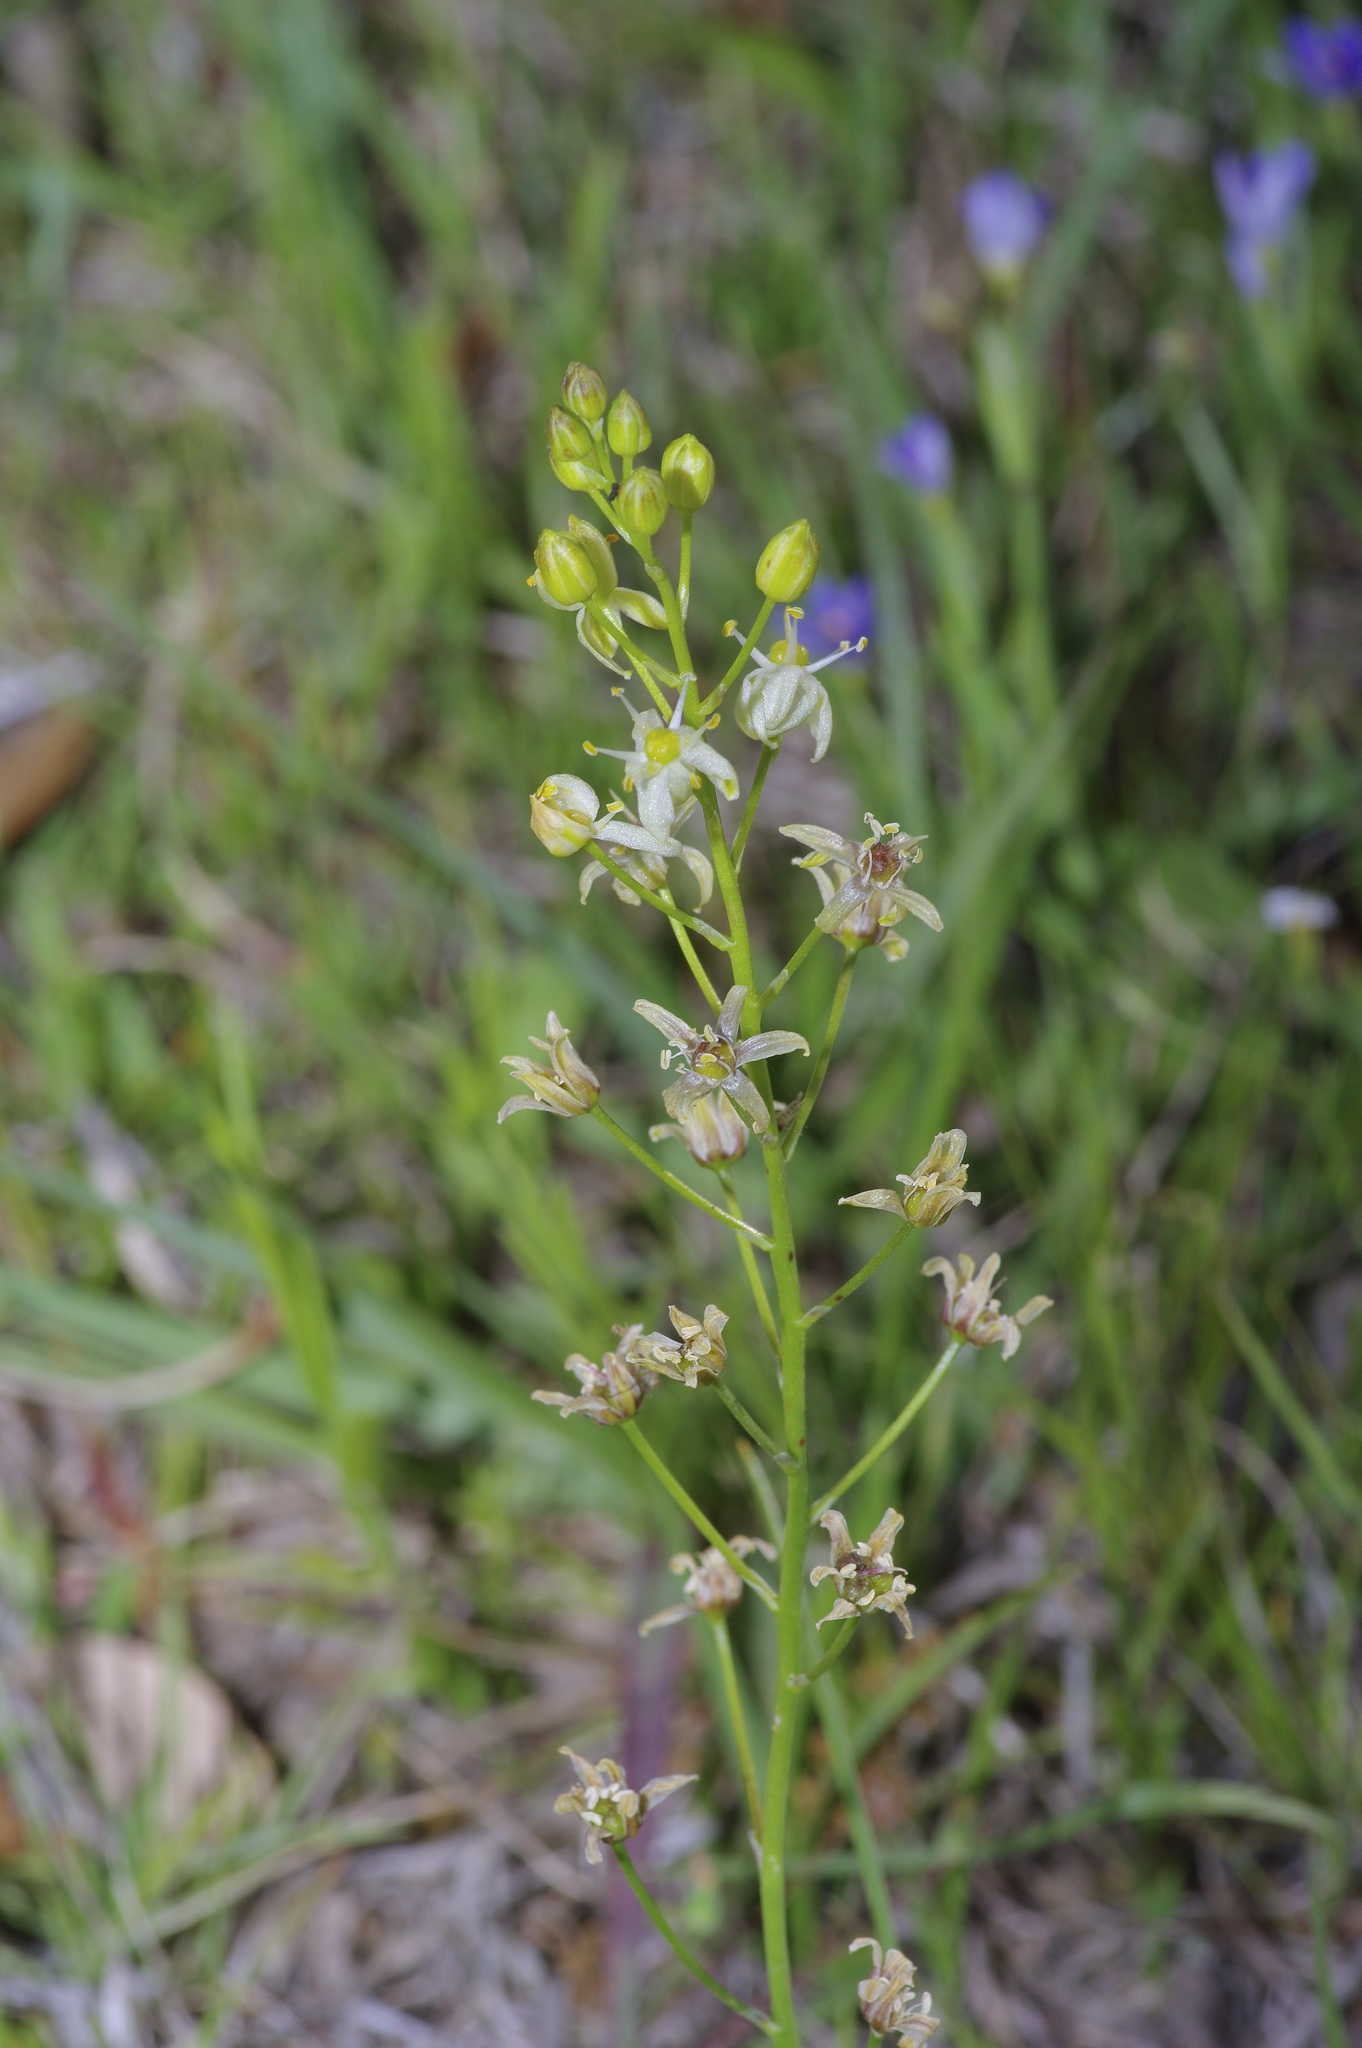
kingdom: Plantae
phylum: Tracheophyta
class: Liliopsida
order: Asparagales
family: Asparagaceae
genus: Schoenolirion
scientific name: Schoenolirion wrightii
